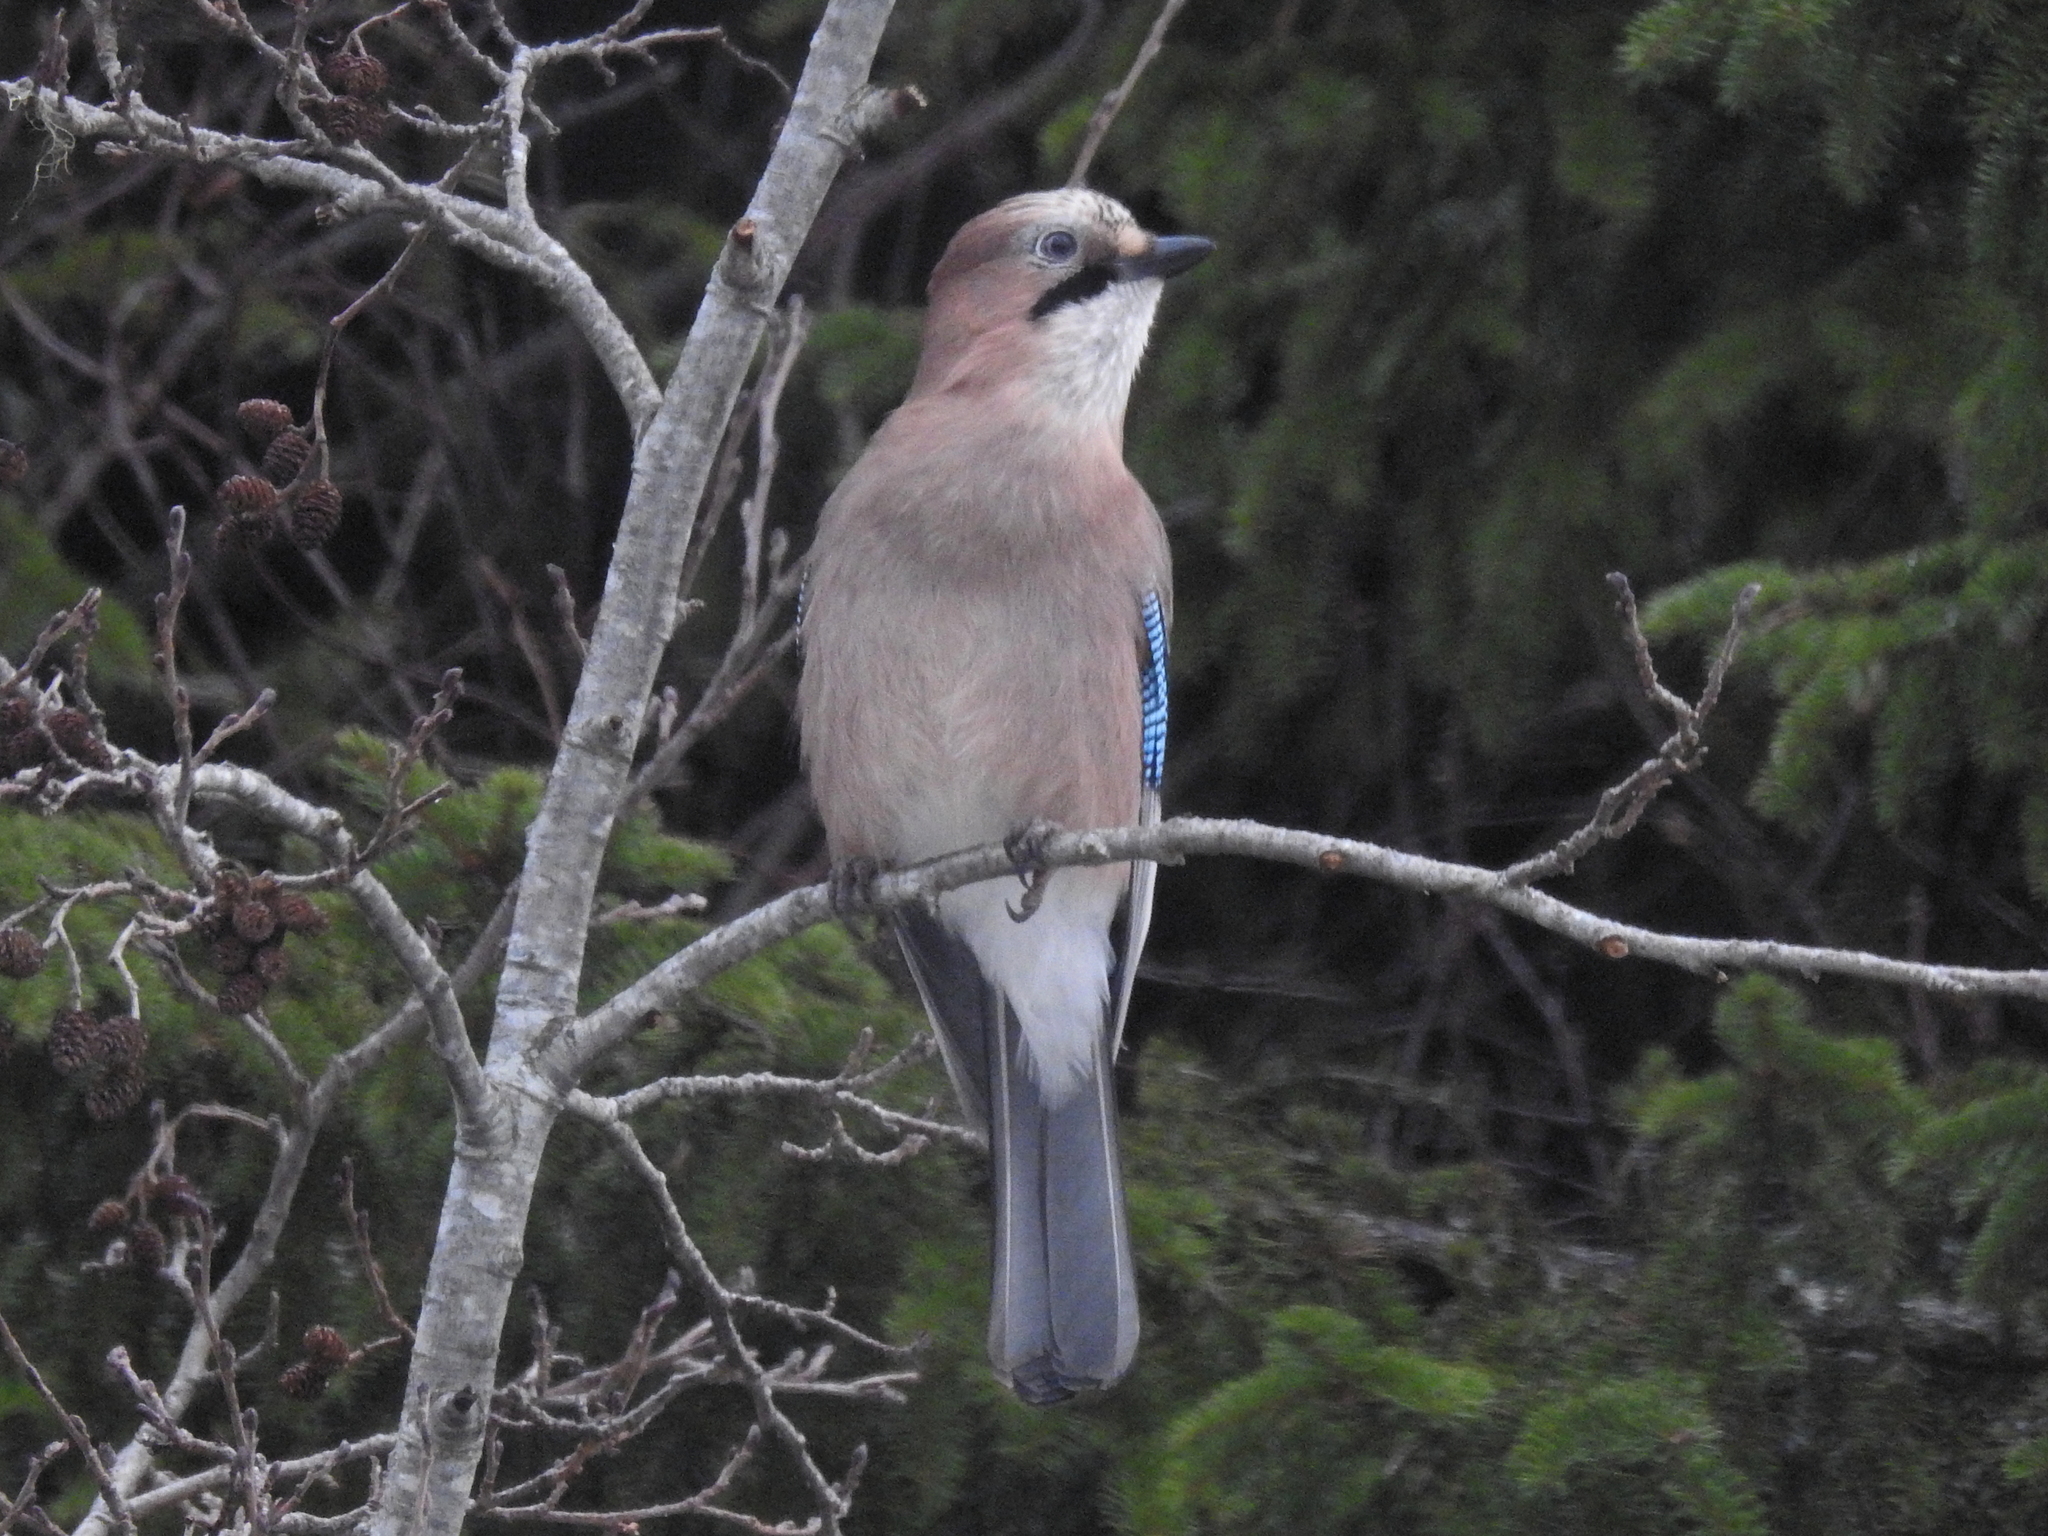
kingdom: Animalia
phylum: Chordata
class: Aves
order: Passeriformes
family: Corvidae
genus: Garrulus
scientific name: Garrulus glandarius
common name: Eurasian jay
